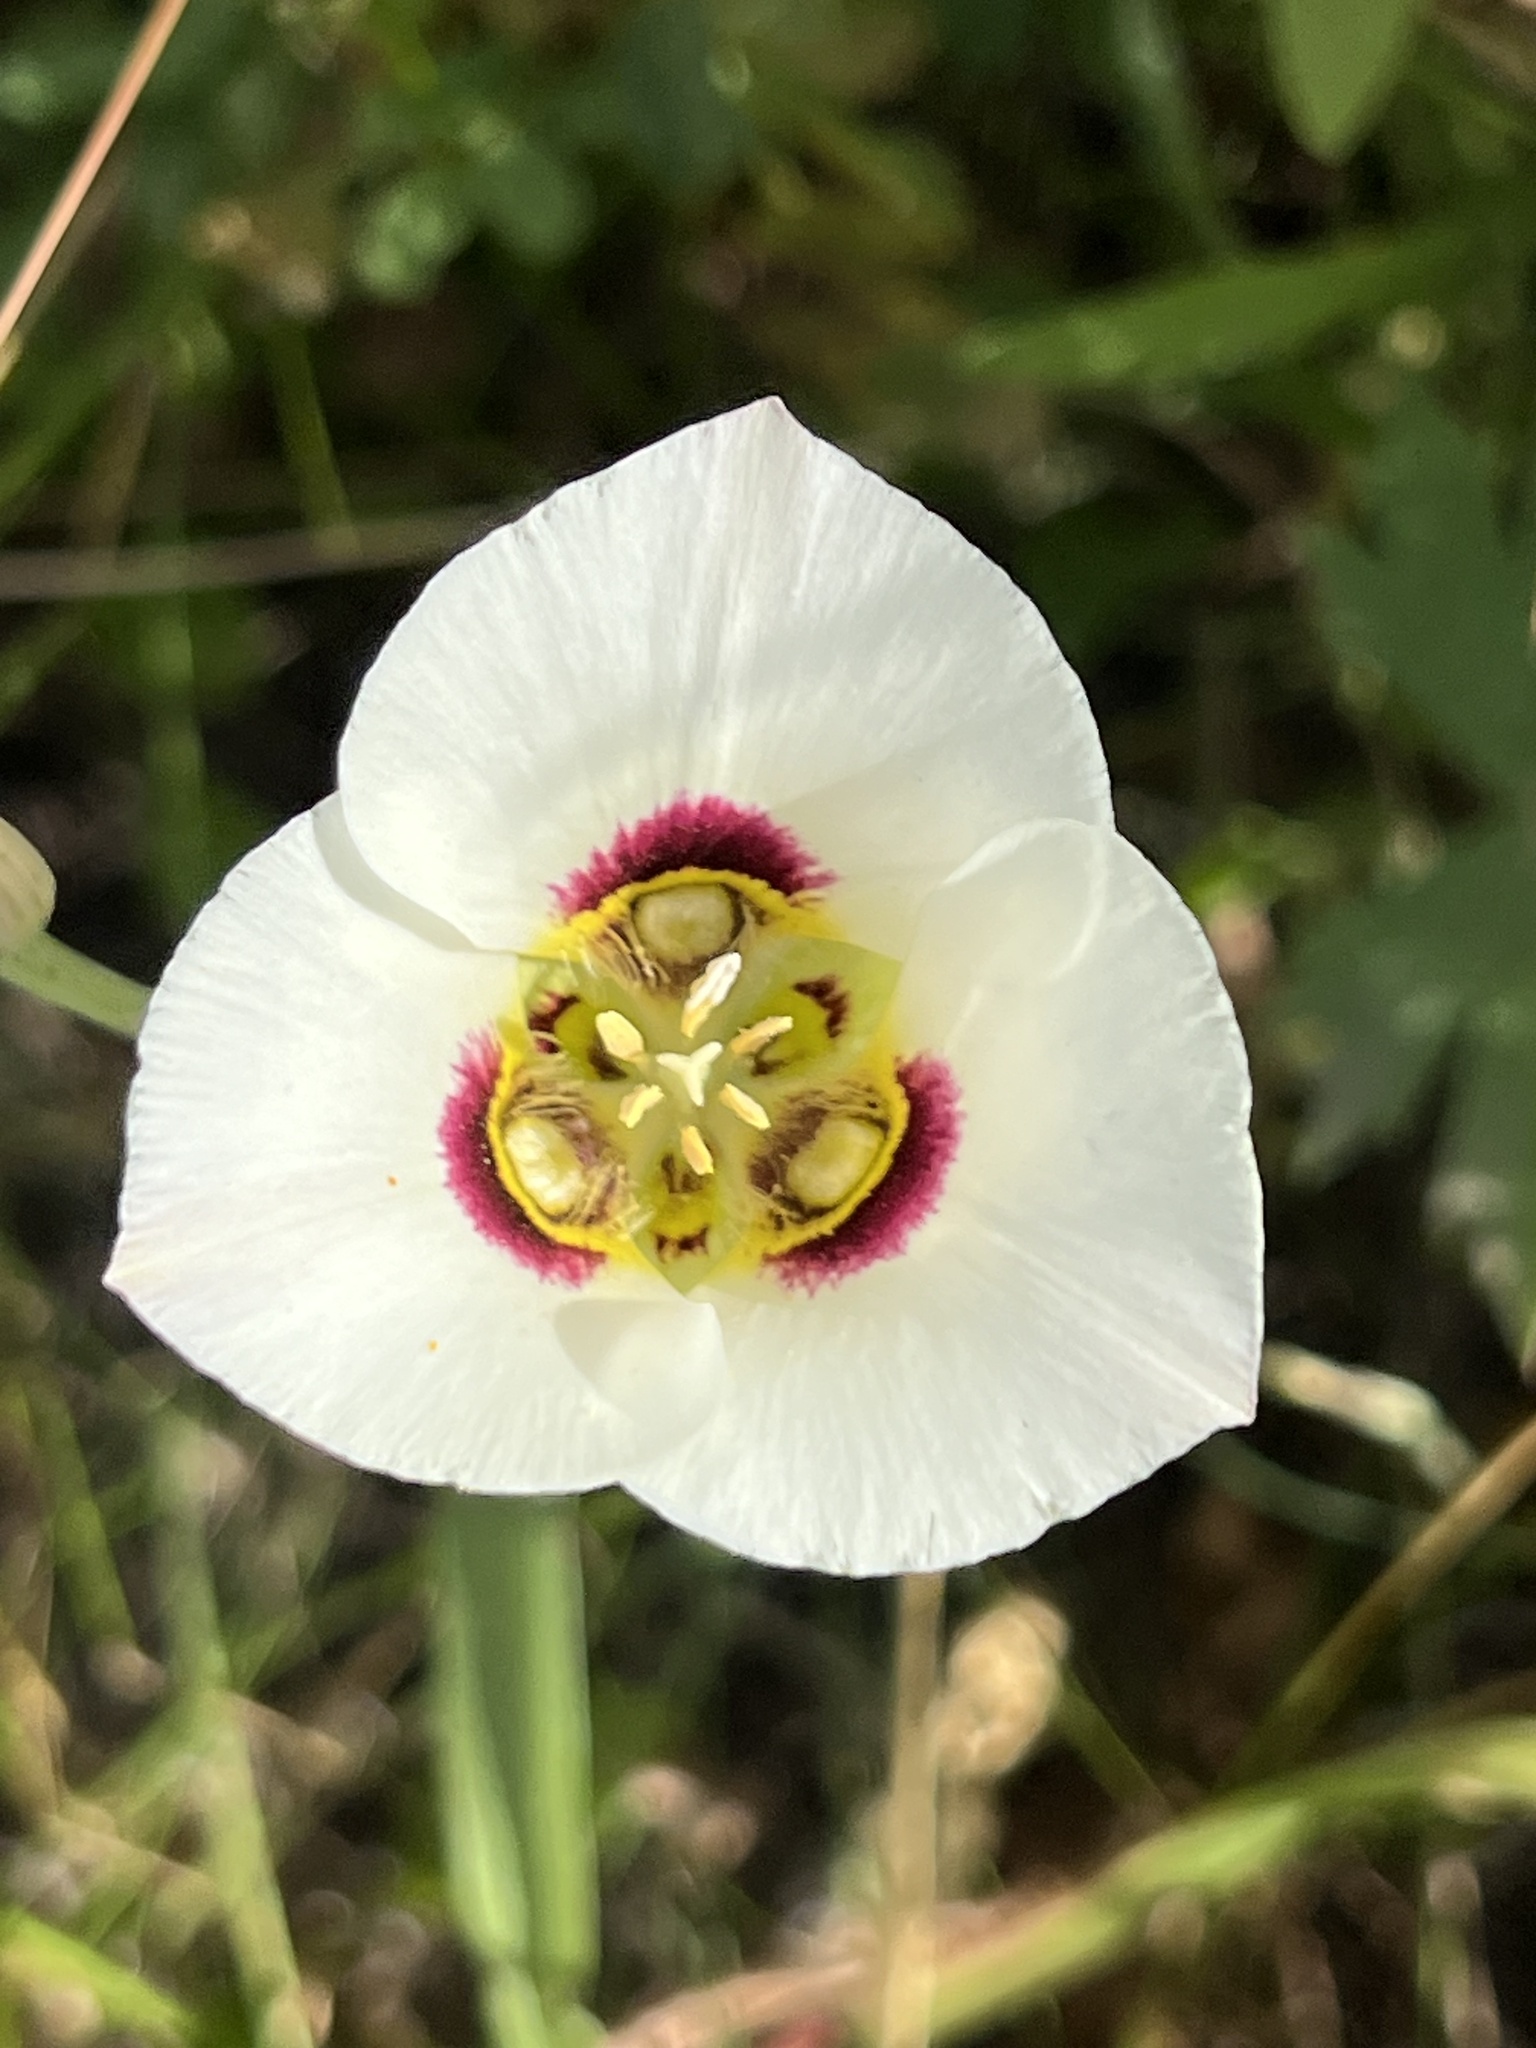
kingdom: Plantae
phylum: Tracheophyta
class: Liliopsida
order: Liliales
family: Liliaceae
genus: Calochortus
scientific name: Calochortus nuttallii
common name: Sego-lily
